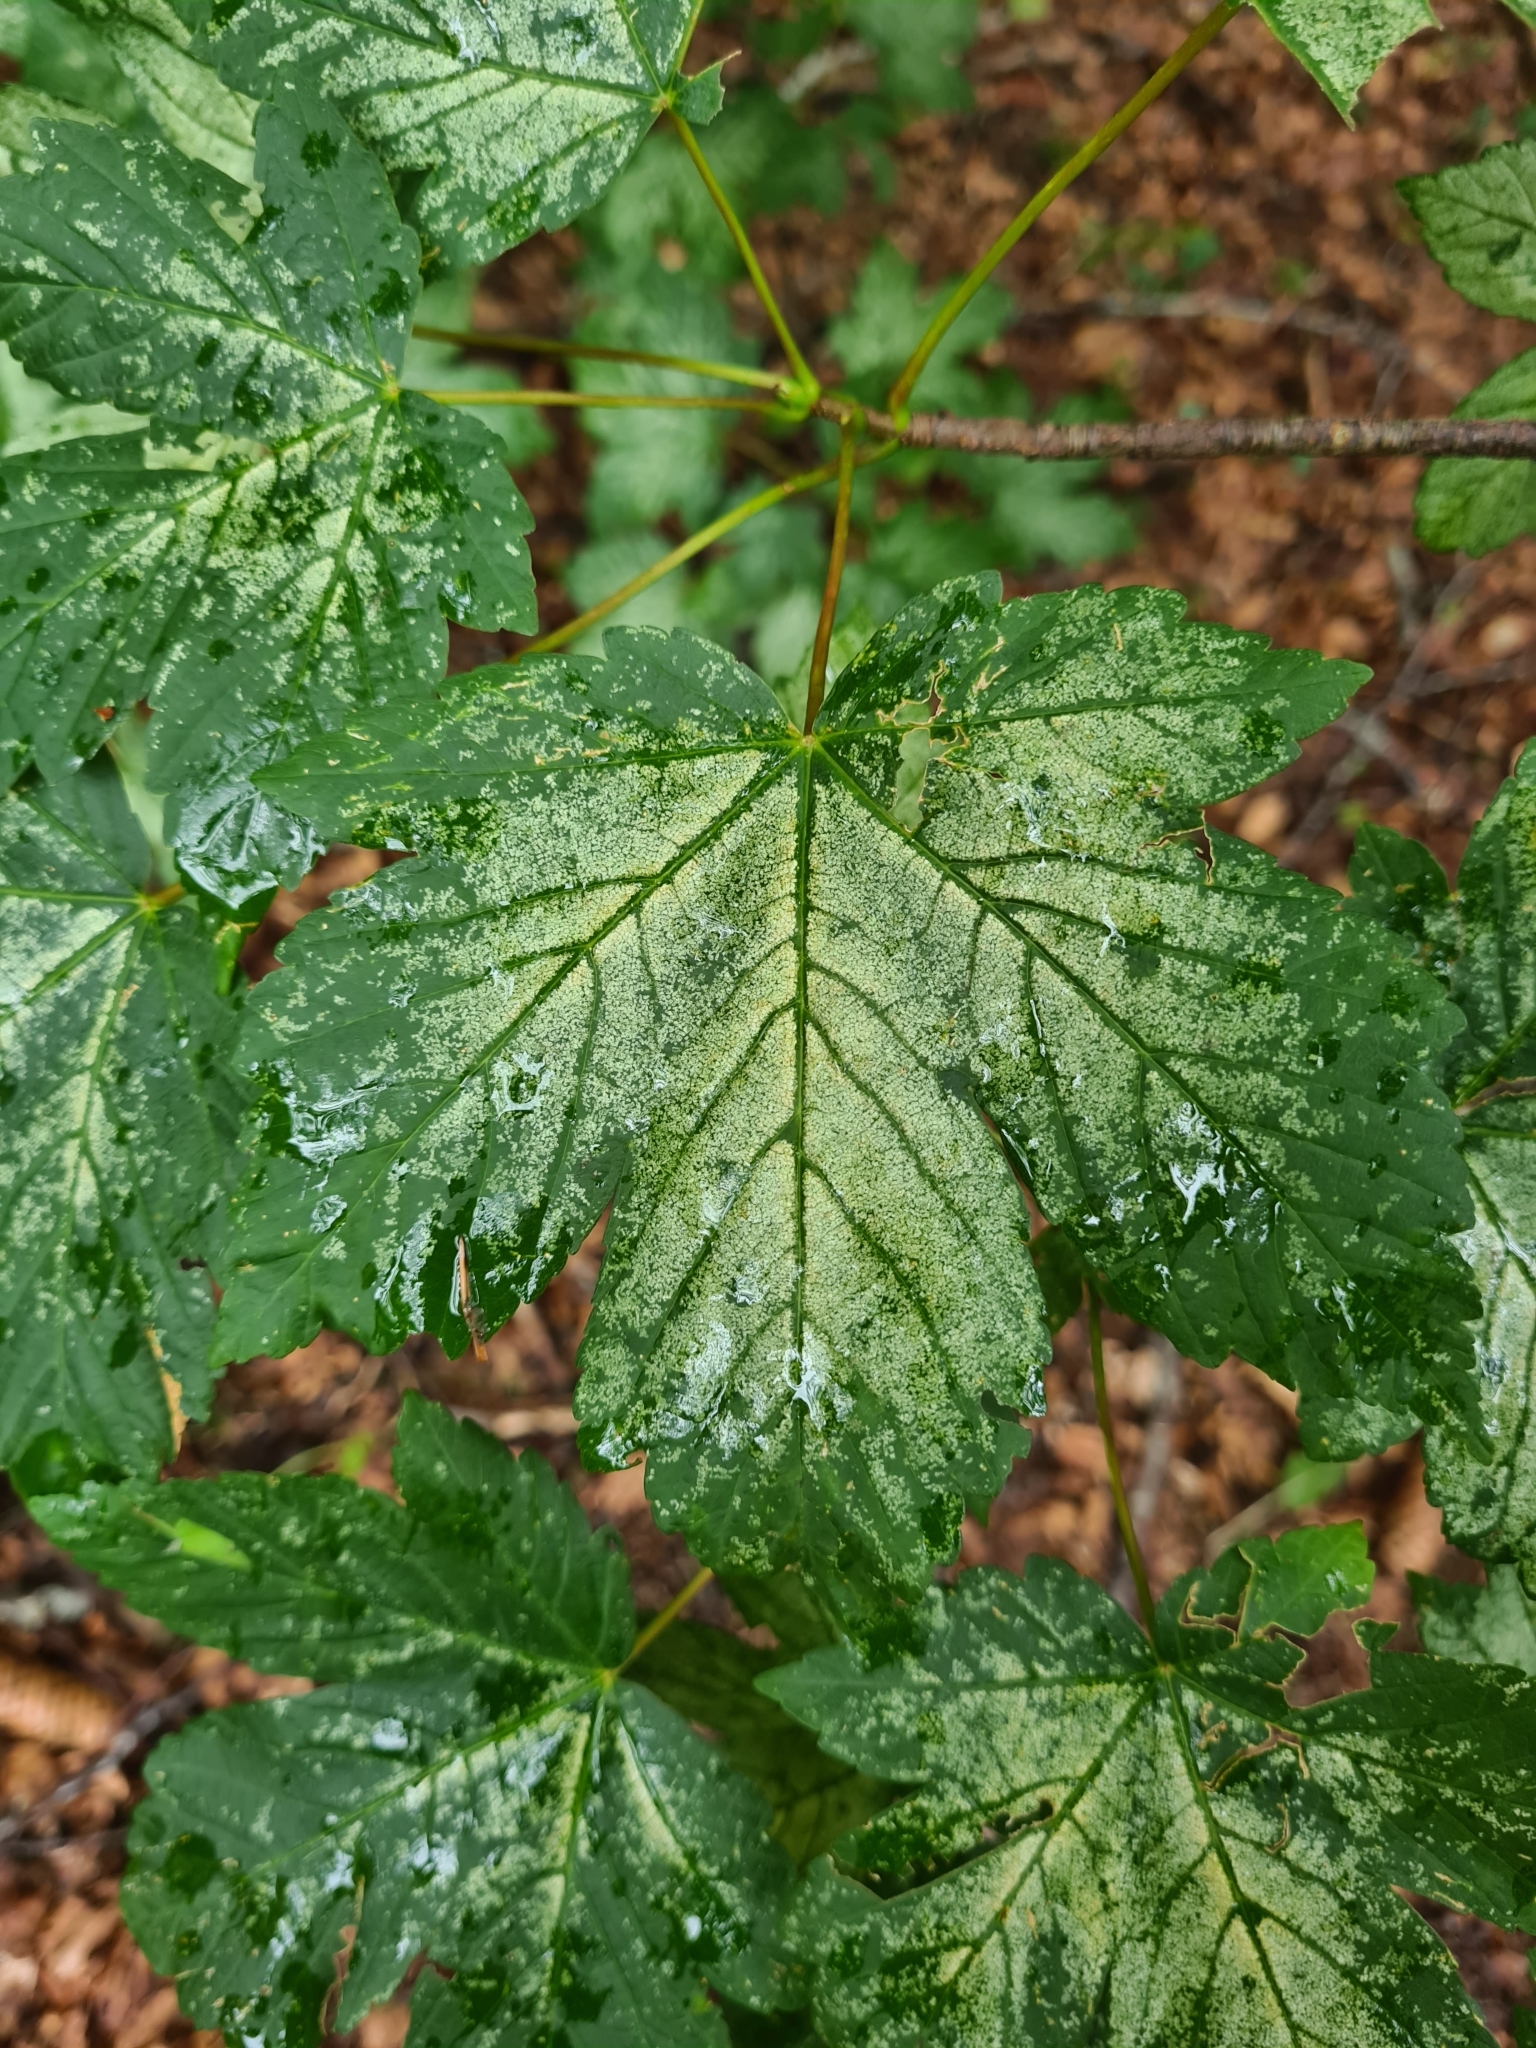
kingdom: Plantae
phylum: Tracheophyta
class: Magnoliopsida
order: Sapindales
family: Sapindaceae
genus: Acer
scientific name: Acer pseudoplatanus
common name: Sycamore
